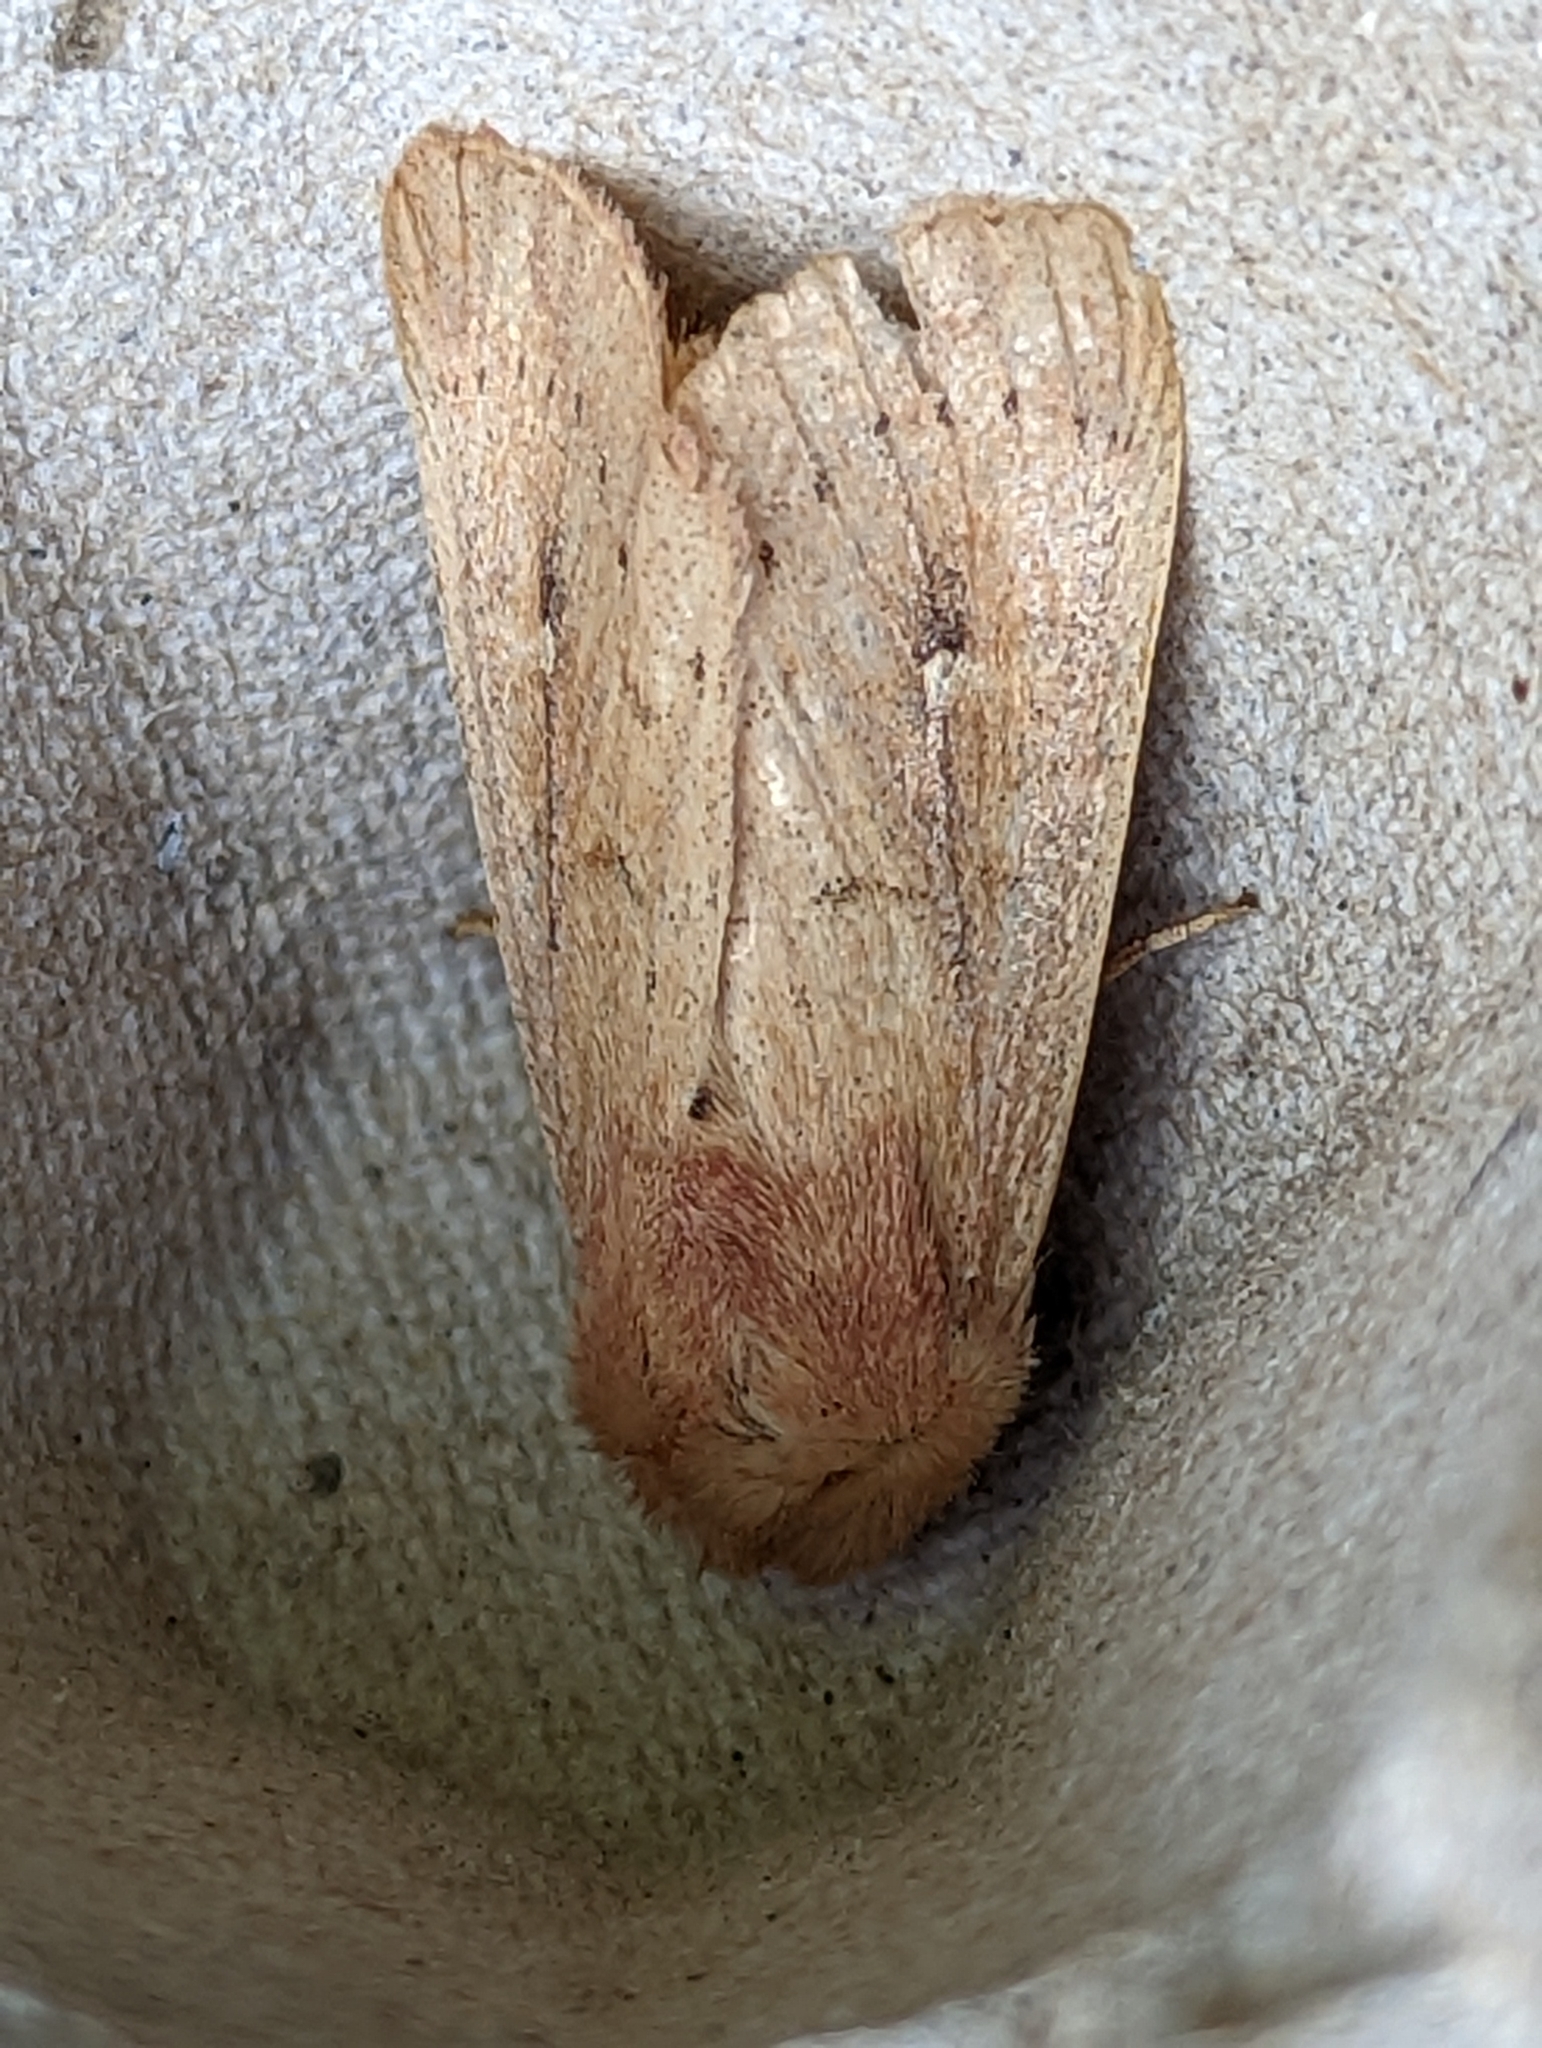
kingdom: Animalia
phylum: Arthropoda
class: Insecta
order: Lepidoptera
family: Noctuidae
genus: Mythimna
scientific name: Mythimna ferrago
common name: Clay
